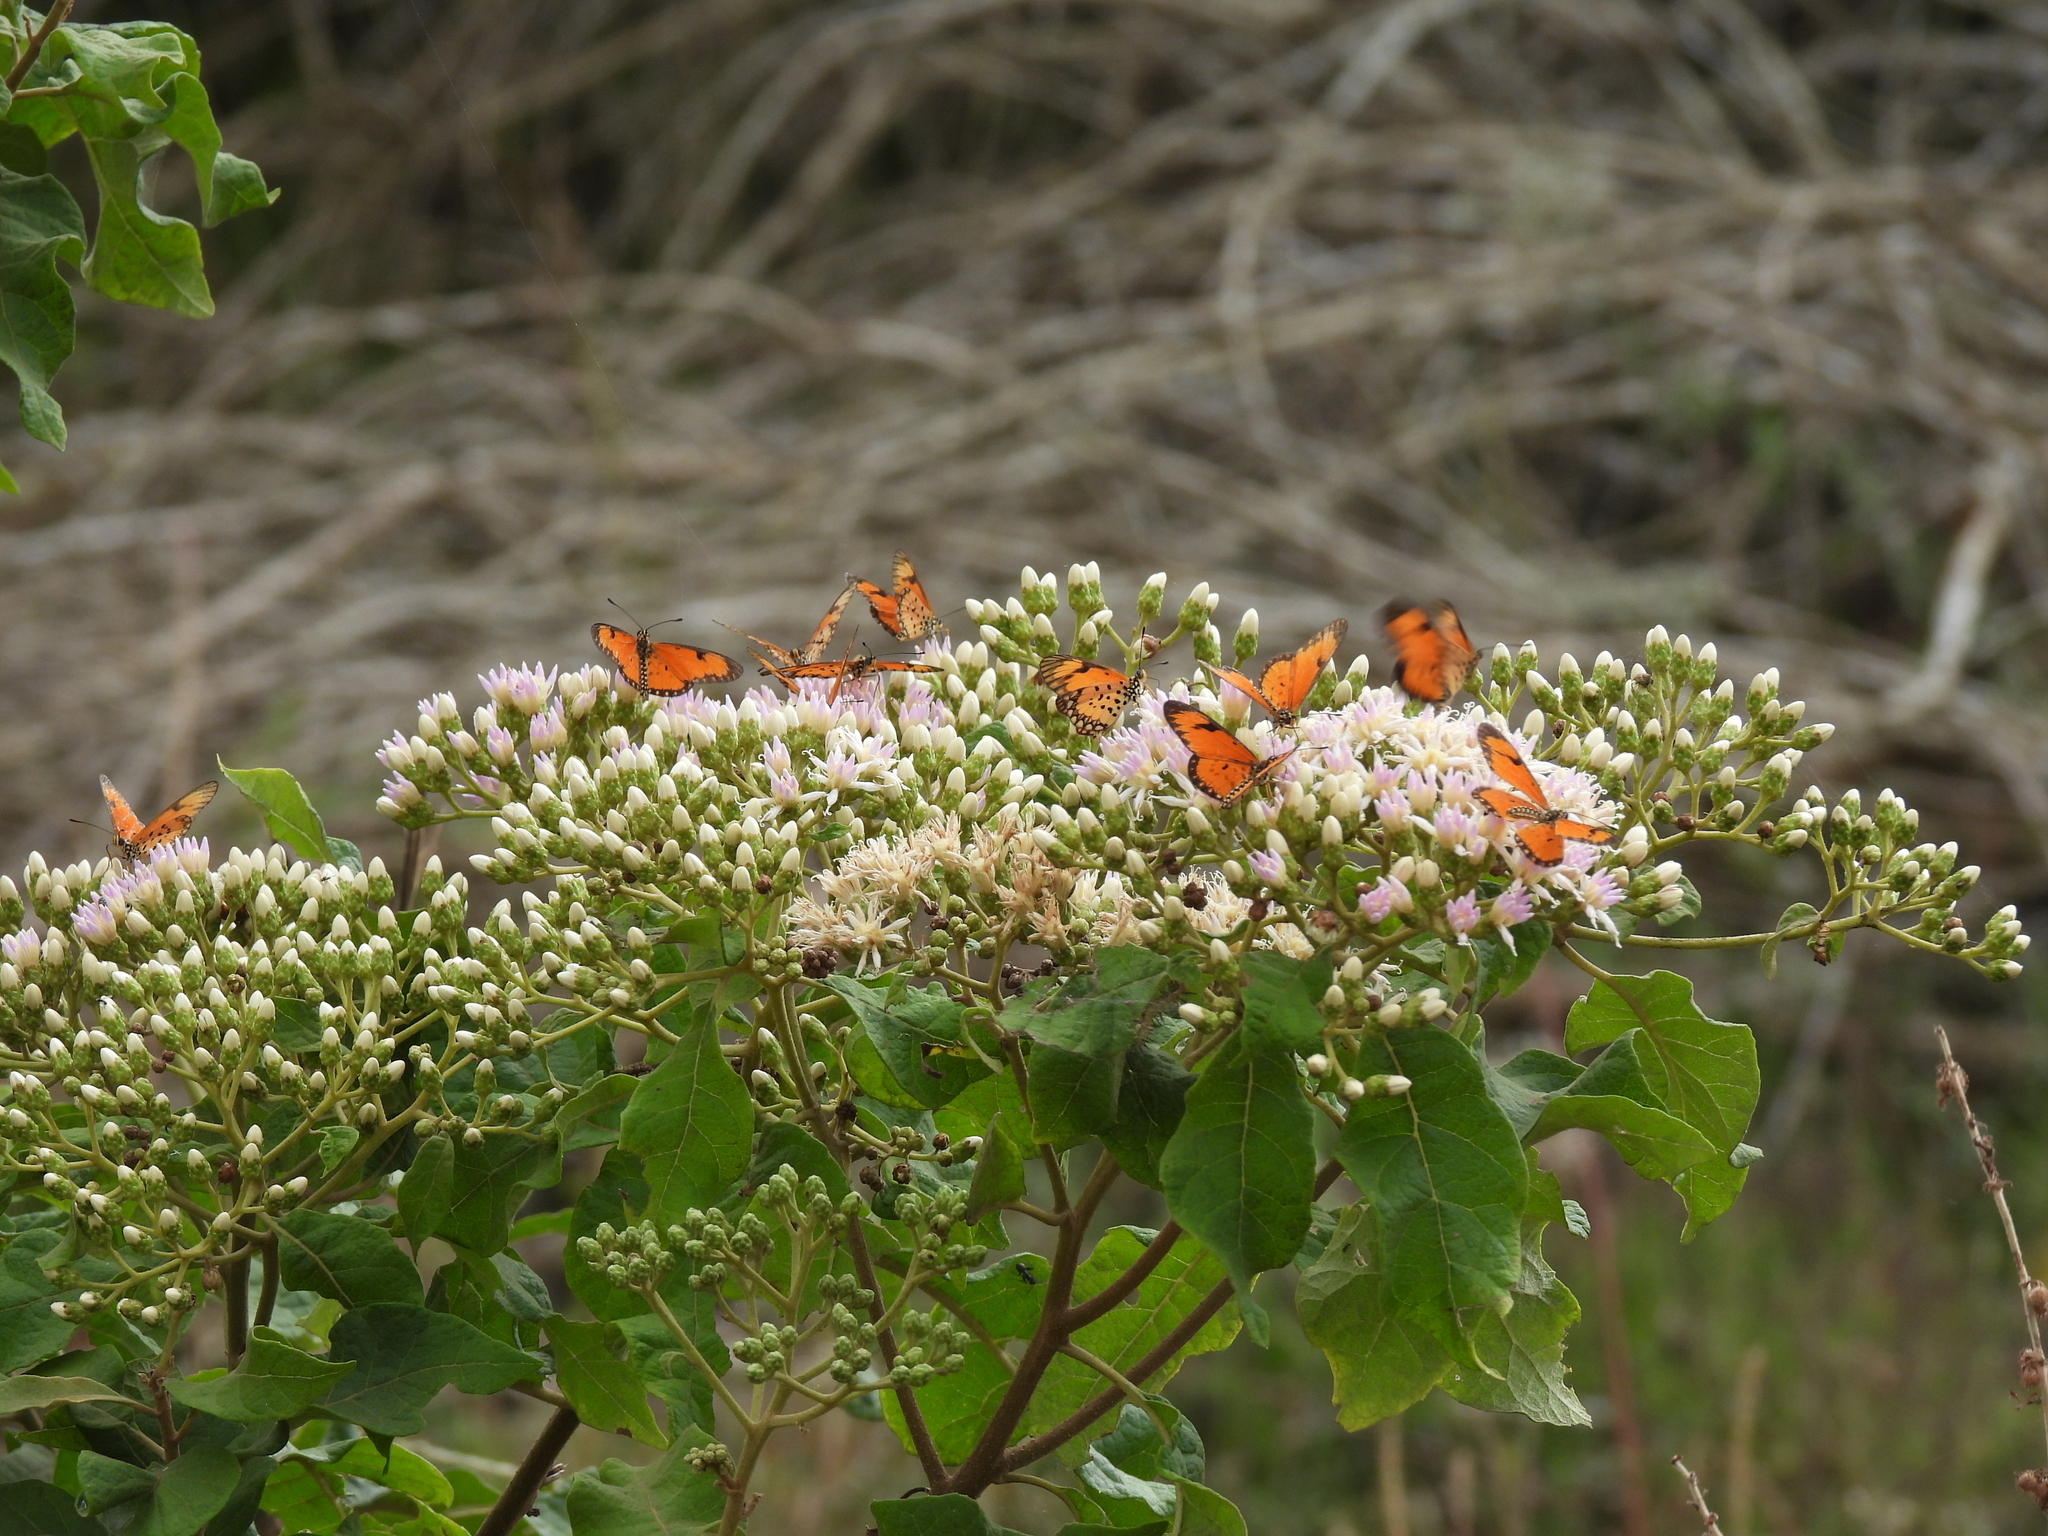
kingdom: Animalia
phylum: Arthropoda
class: Insecta
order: Lepidoptera
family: Nymphalidae
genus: Acraea
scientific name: Acraea Telchinia serena
